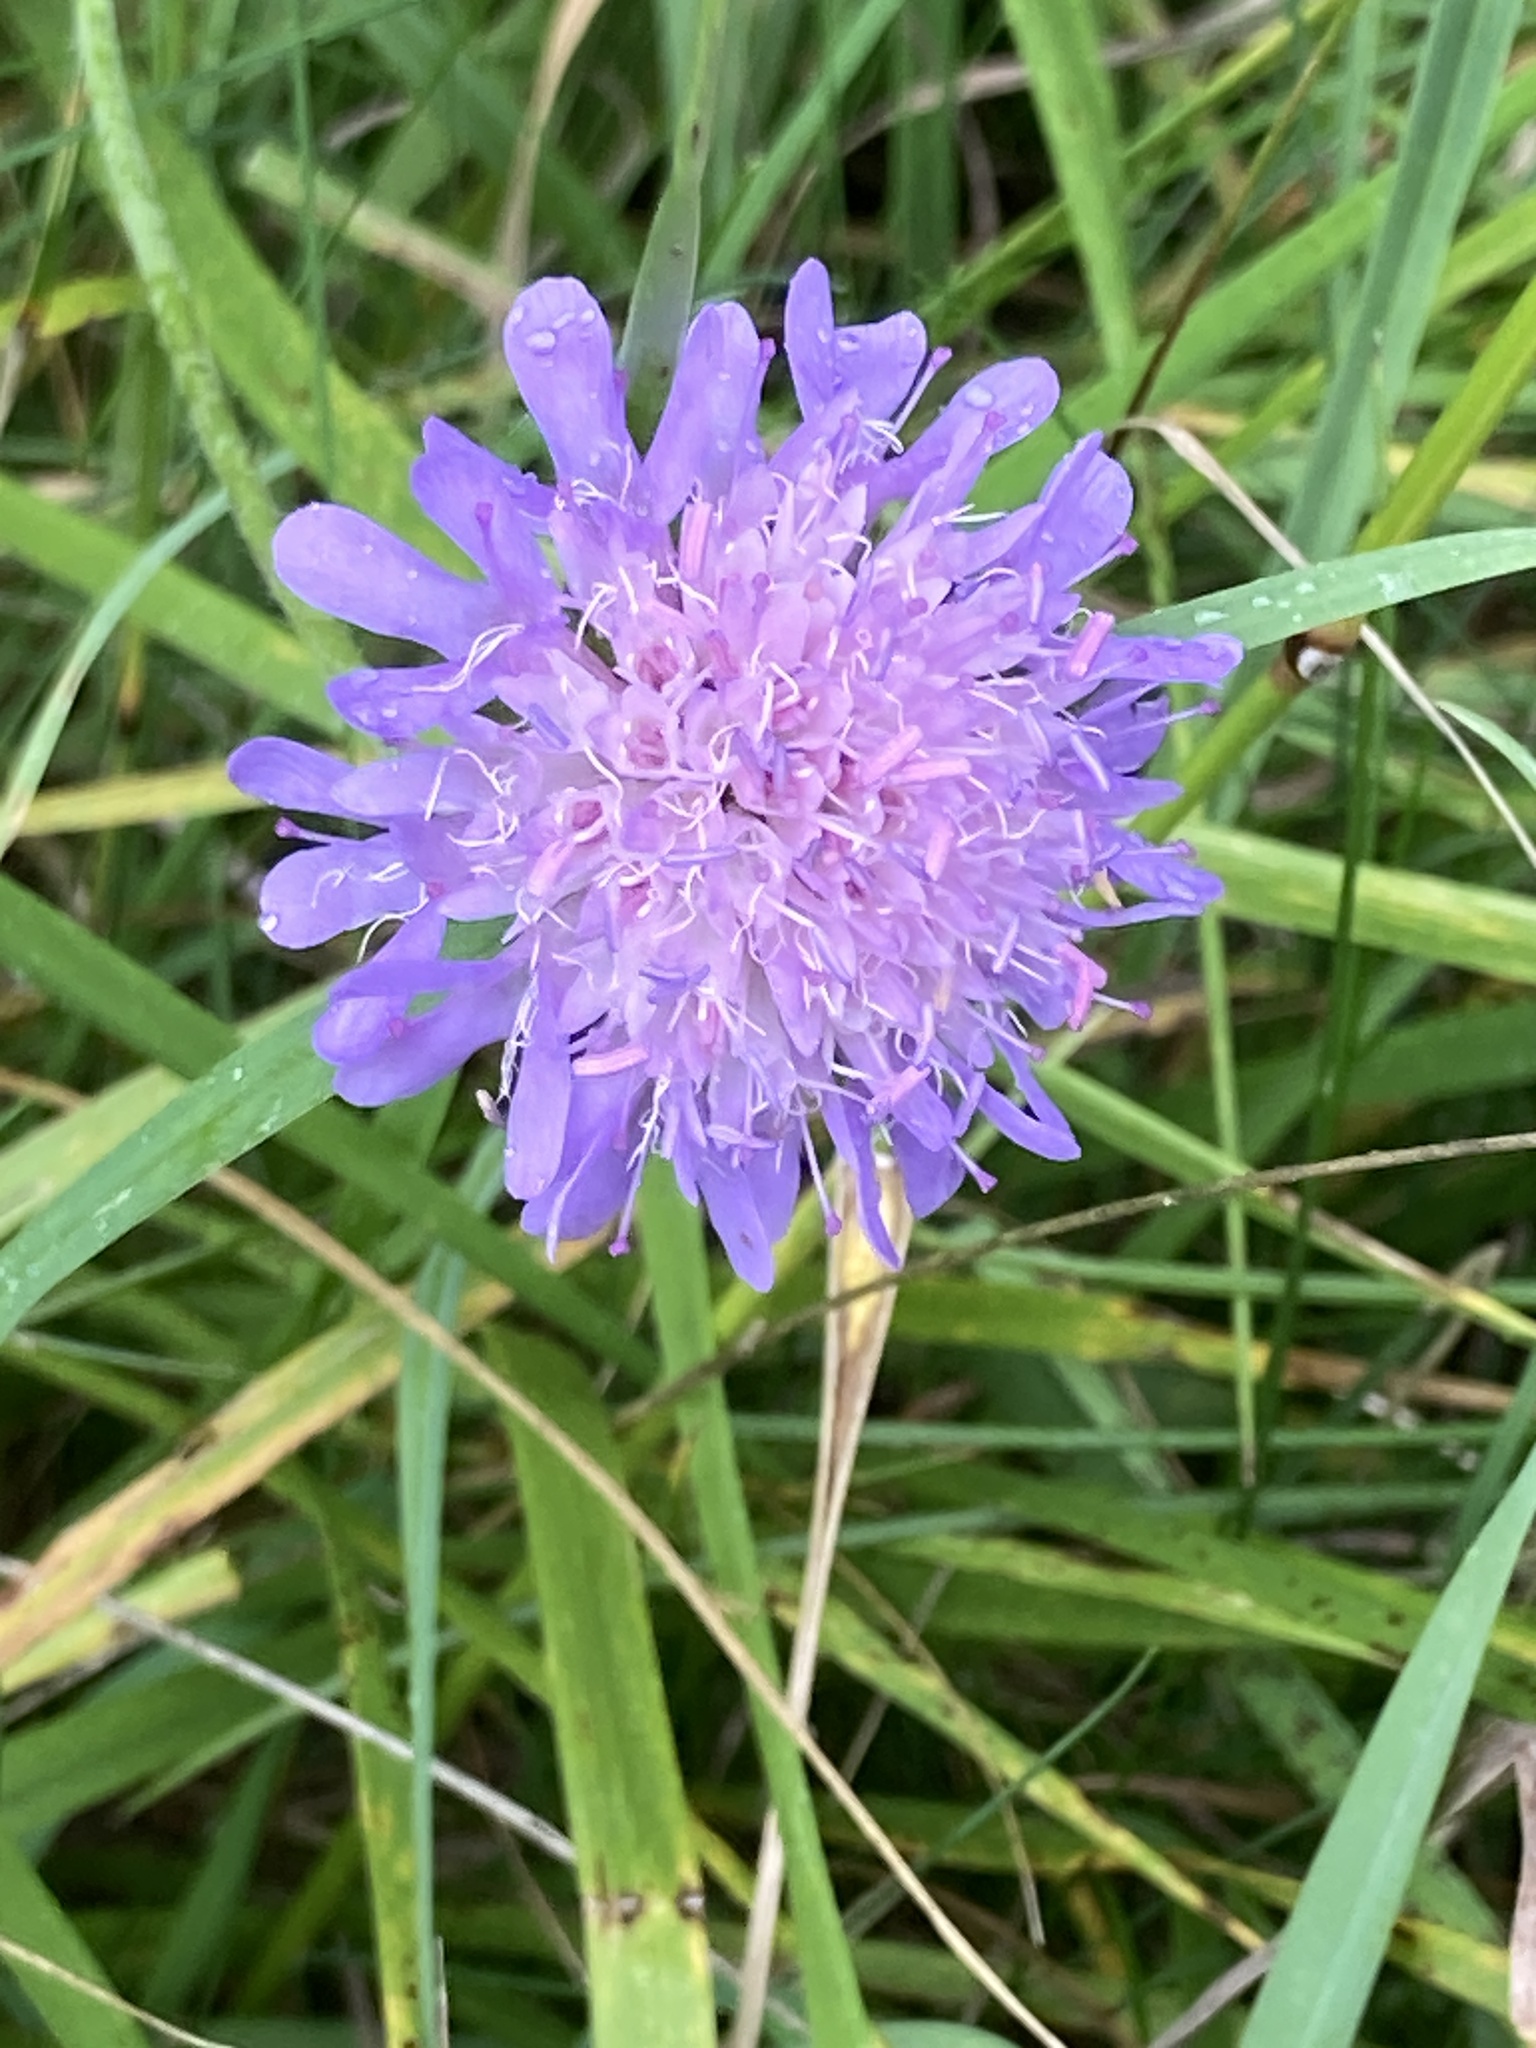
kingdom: Plantae
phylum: Tracheophyta
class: Magnoliopsida
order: Dipsacales
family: Caprifoliaceae
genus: Knautia
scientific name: Knautia arvensis
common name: Field scabiosa
